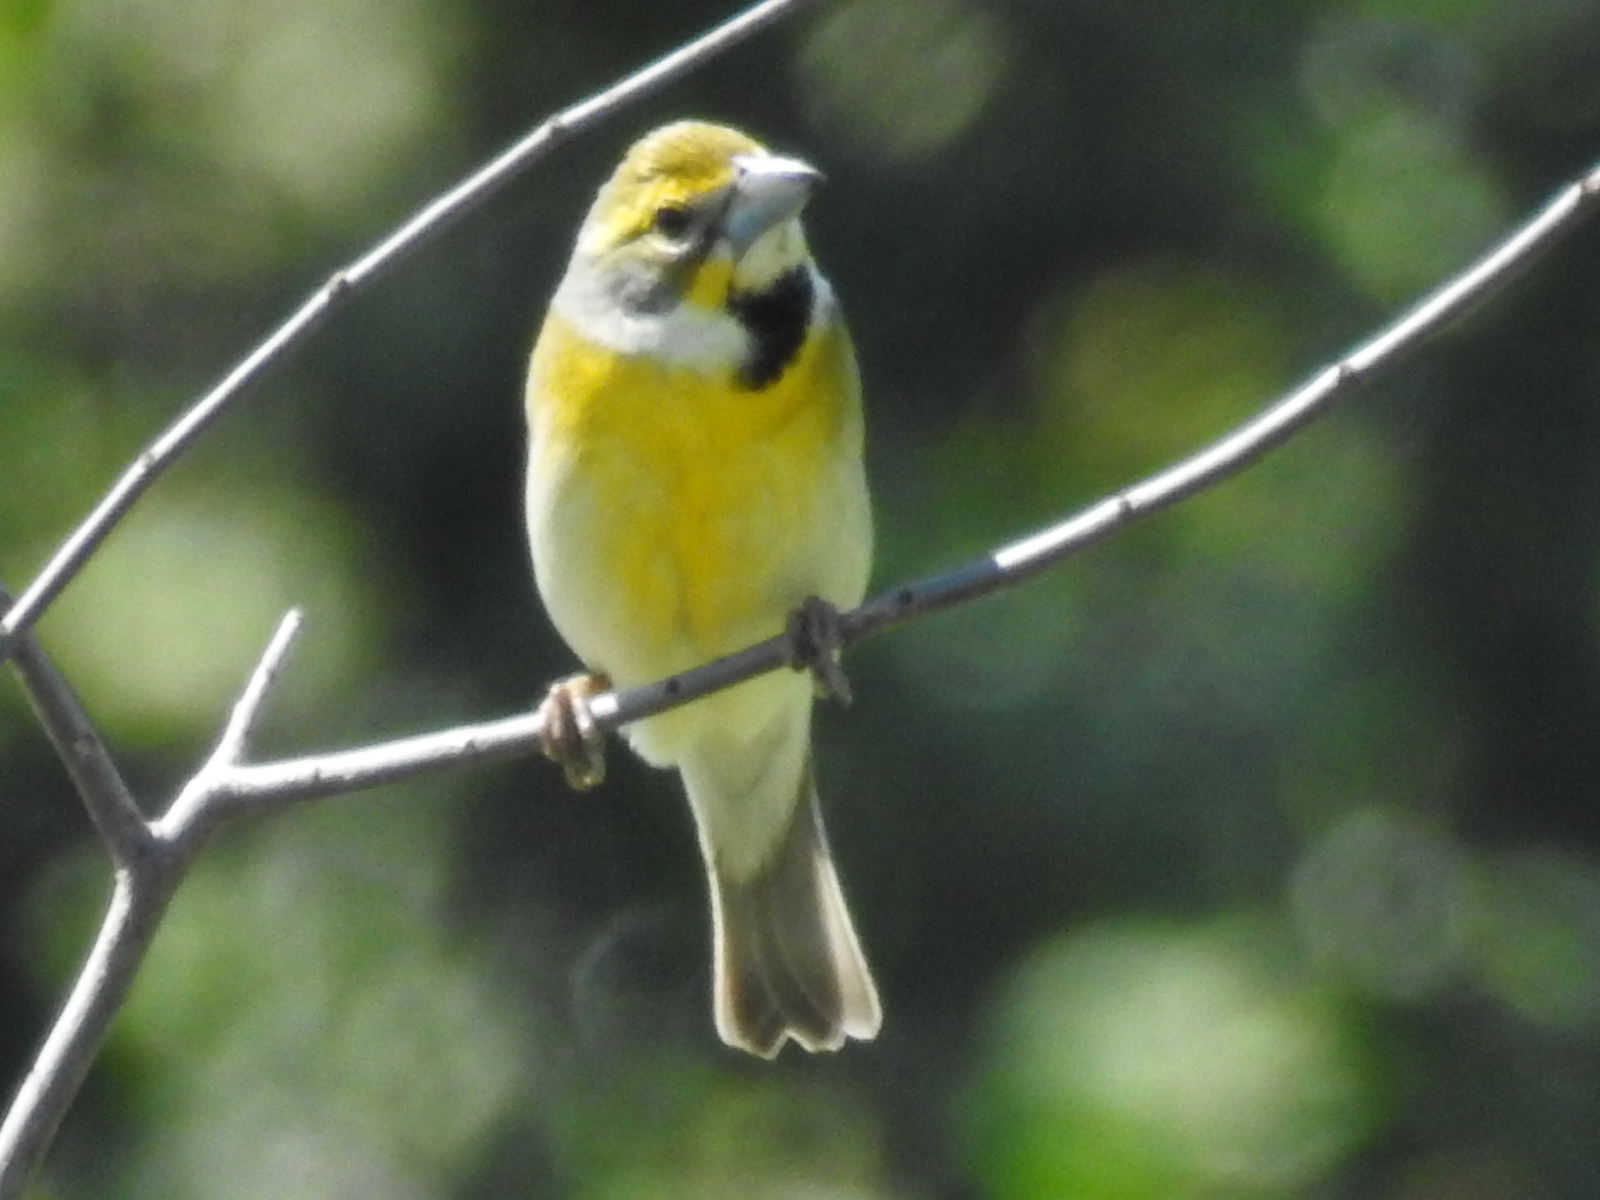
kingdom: Animalia
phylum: Chordata
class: Aves
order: Passeriformes
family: Cardinalidae
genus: Spiza
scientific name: Spiza americana
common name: Dickcissel
